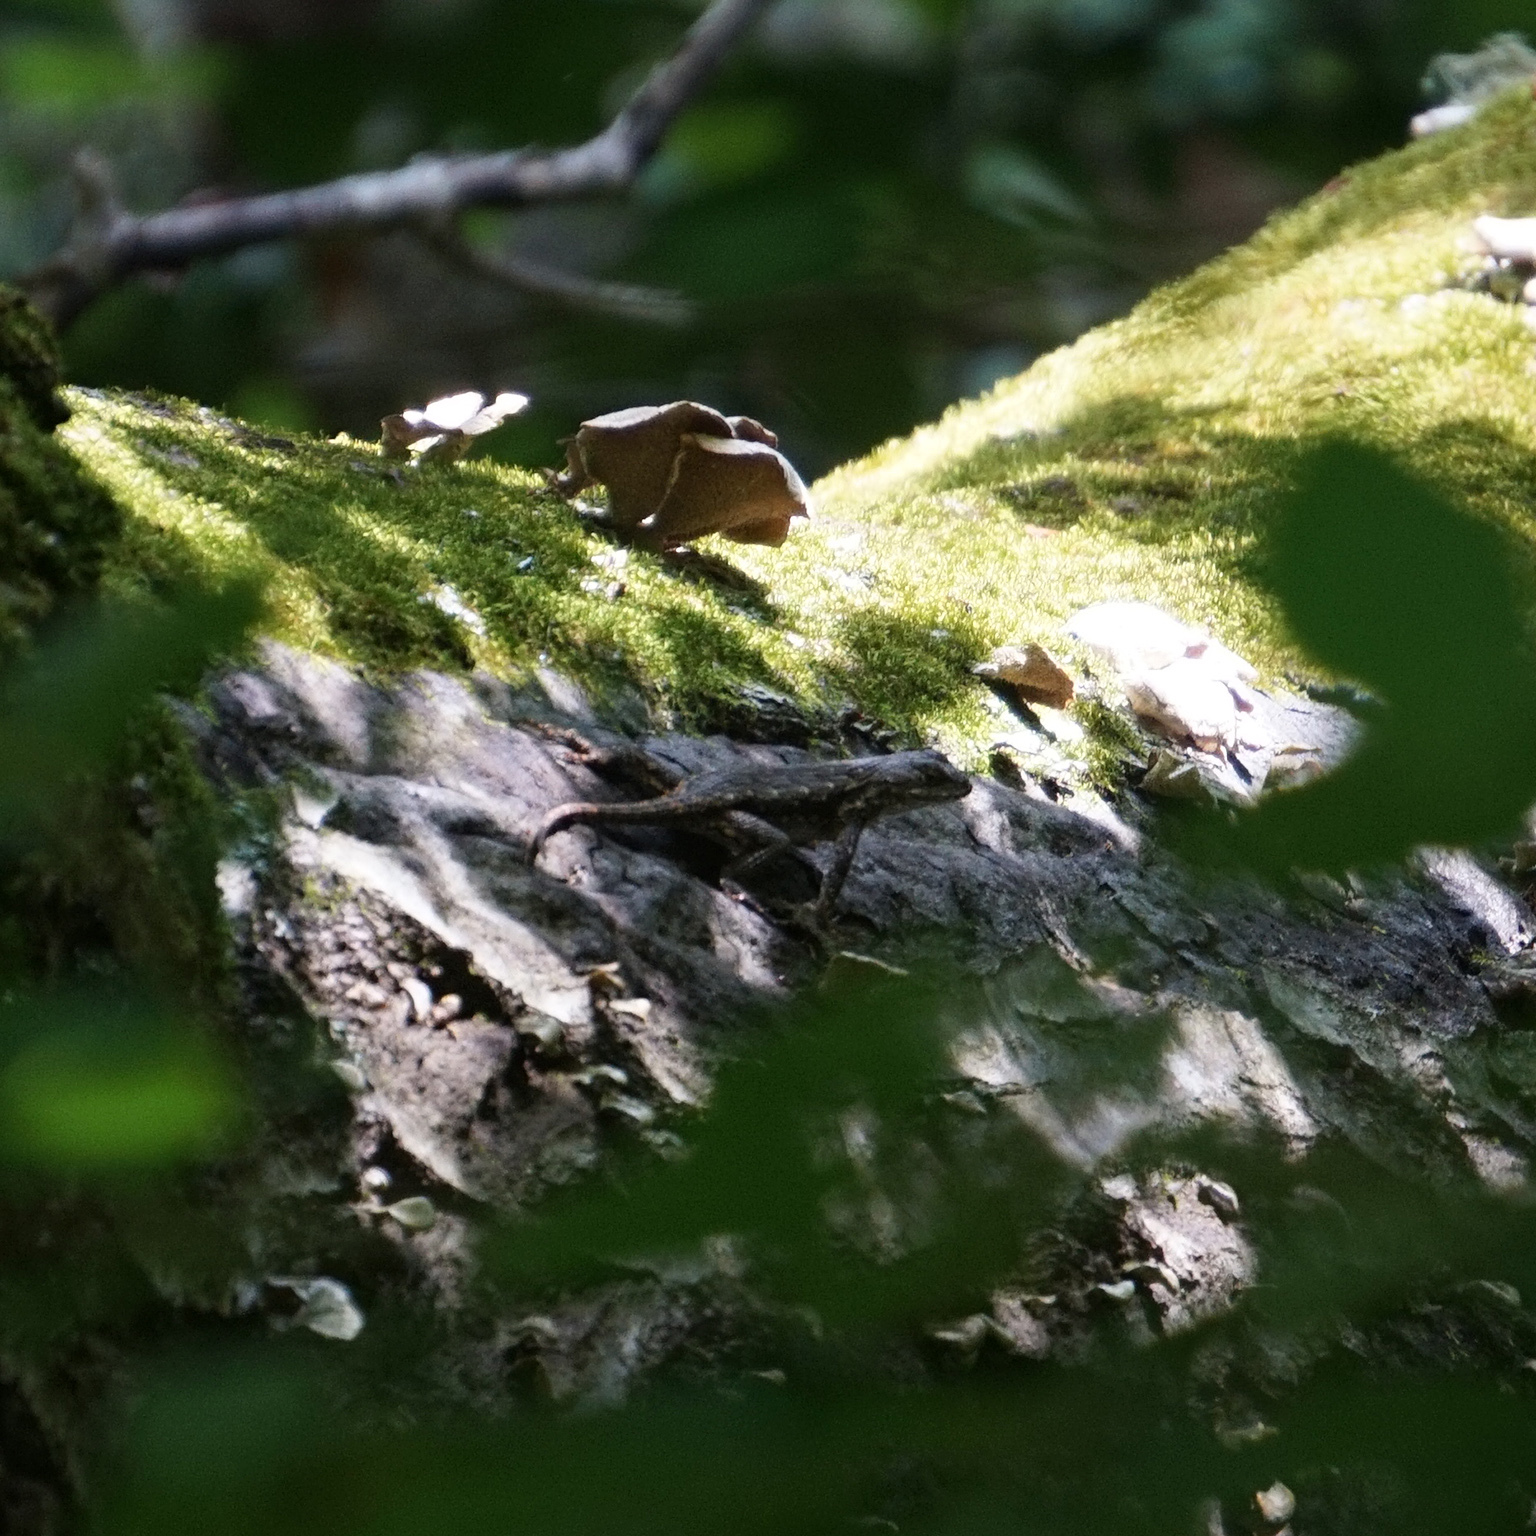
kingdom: Animalia
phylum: Chordata
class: Squamata
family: Phrynosomatidae
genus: Sceloporus
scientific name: Sceloporus undulatus
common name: Eastern fence lizard
